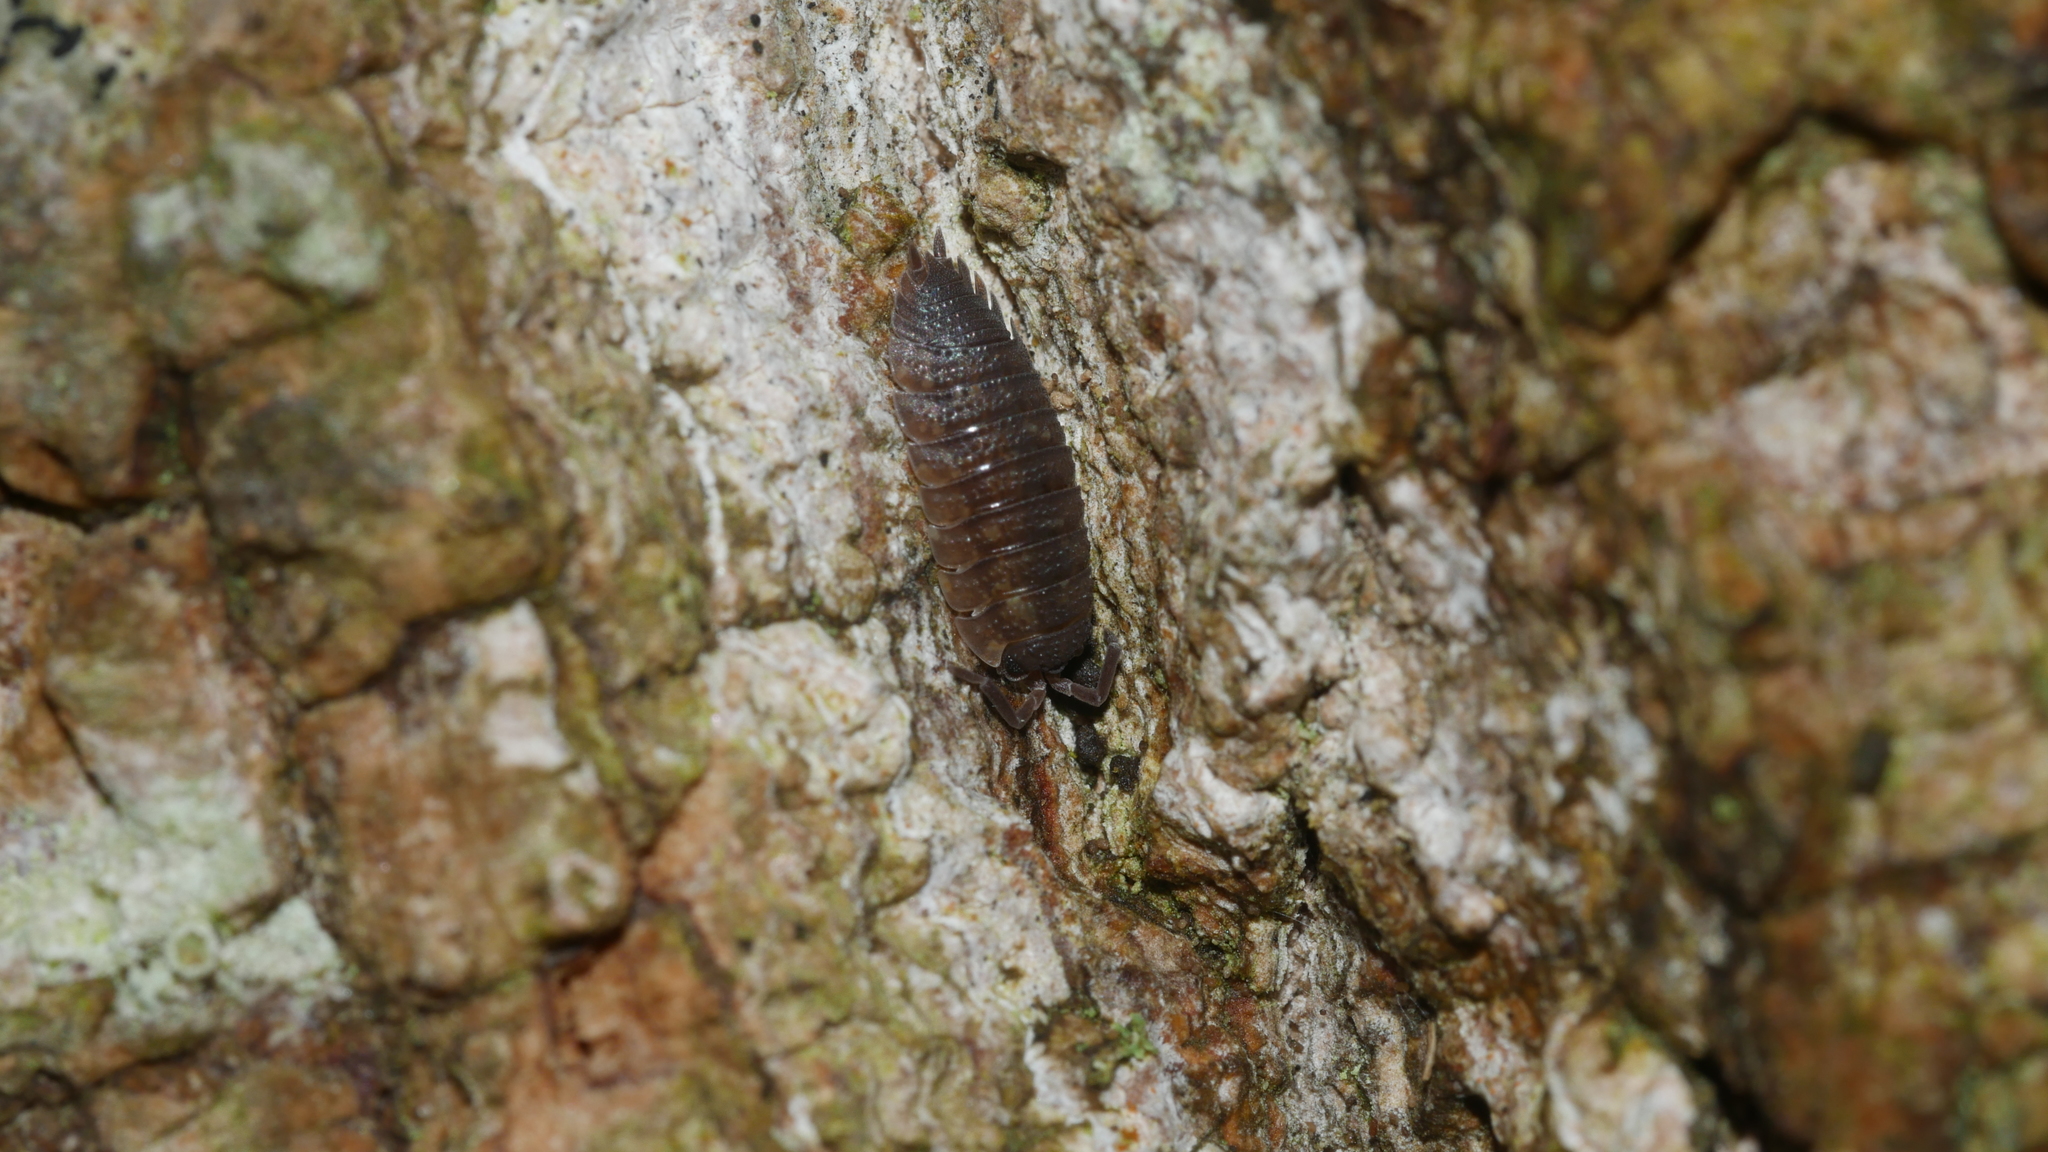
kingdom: Animalia
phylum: Arthropoda
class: Malacostraca
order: Isopoda
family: Porcellionidae
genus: Porcellio
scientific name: Porcellio scaber
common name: Common rough woodlouse
